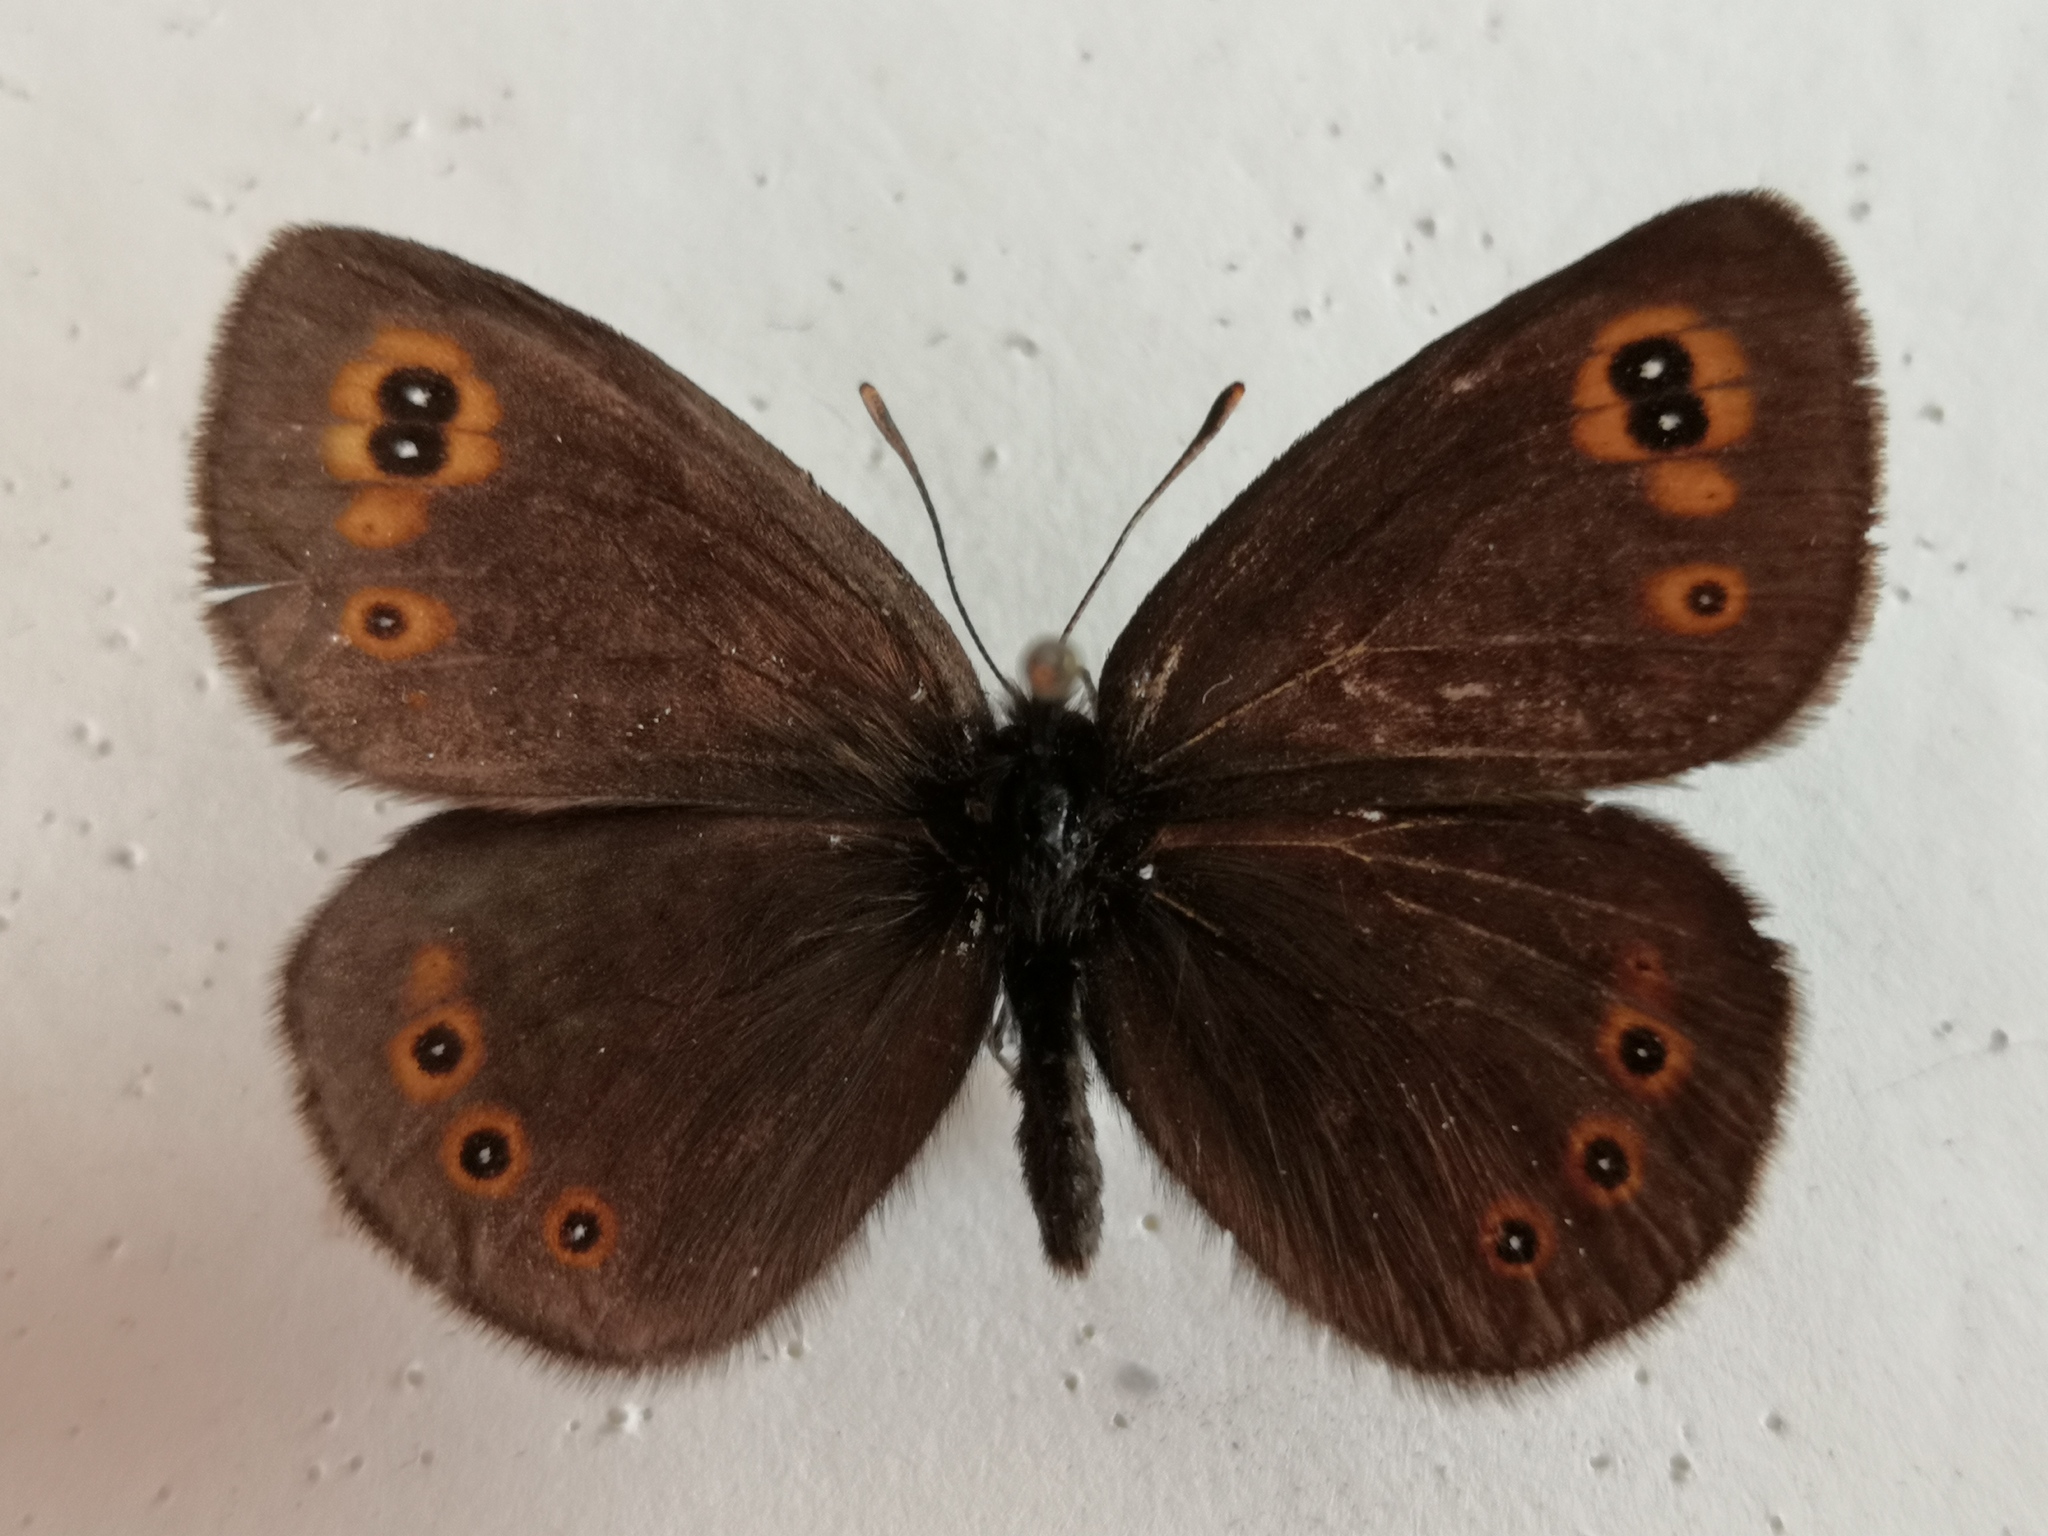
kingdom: Animalia
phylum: Arthropoda
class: Insecta
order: Lepidoptera
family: Nymphalidae
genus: Erebia
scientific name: Erebia medusa
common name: Woodland ringlet
